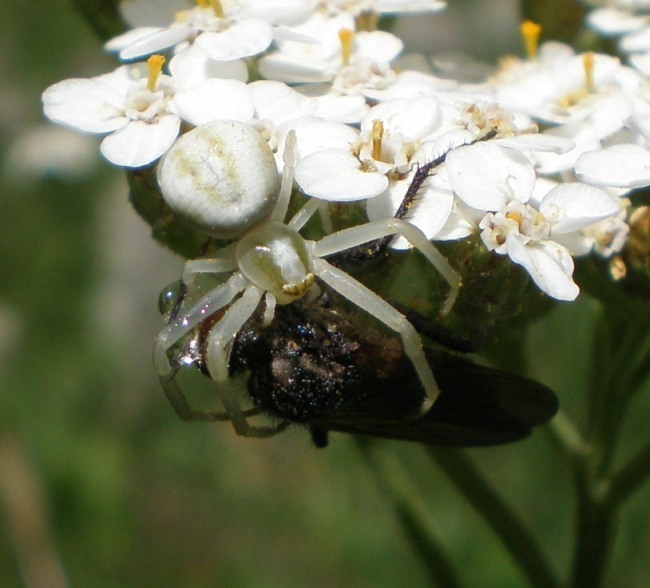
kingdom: Animalia
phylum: Arthropoda
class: Arachnida
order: Araneae
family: Thomisidae
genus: Misumena
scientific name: Misumena vatia
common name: Goldenrod crab spider
